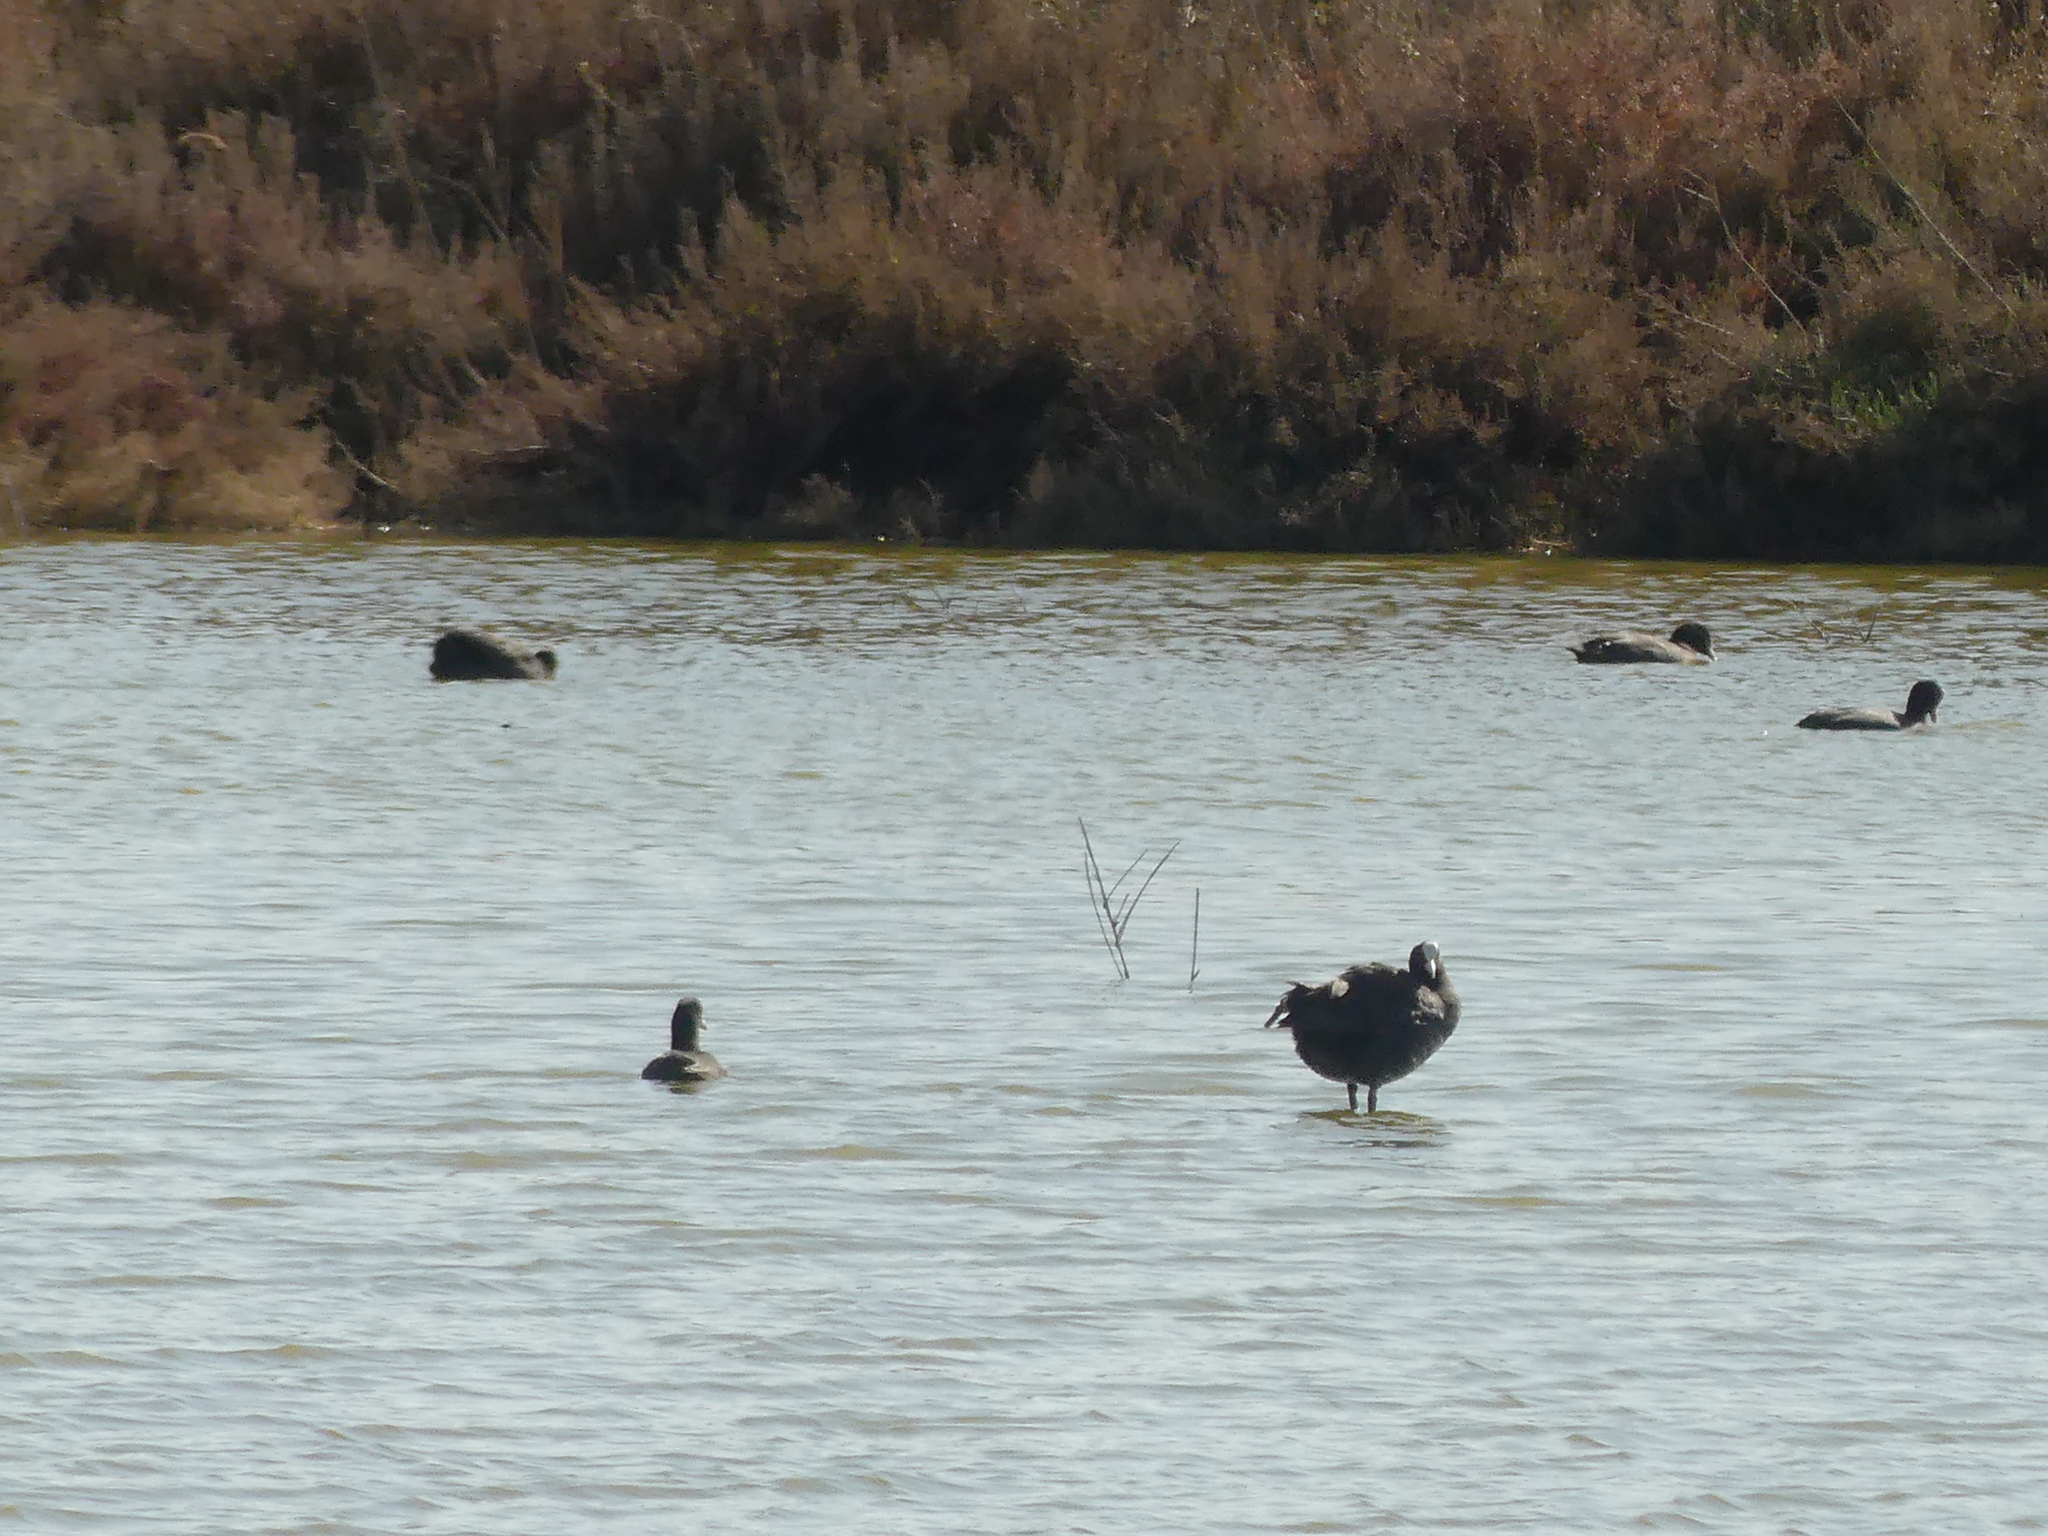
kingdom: Animalia
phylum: Chordata
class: Aves
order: Gruiformes
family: Rallidae
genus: Fulica
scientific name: Fulica atra
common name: Eurasian coot
